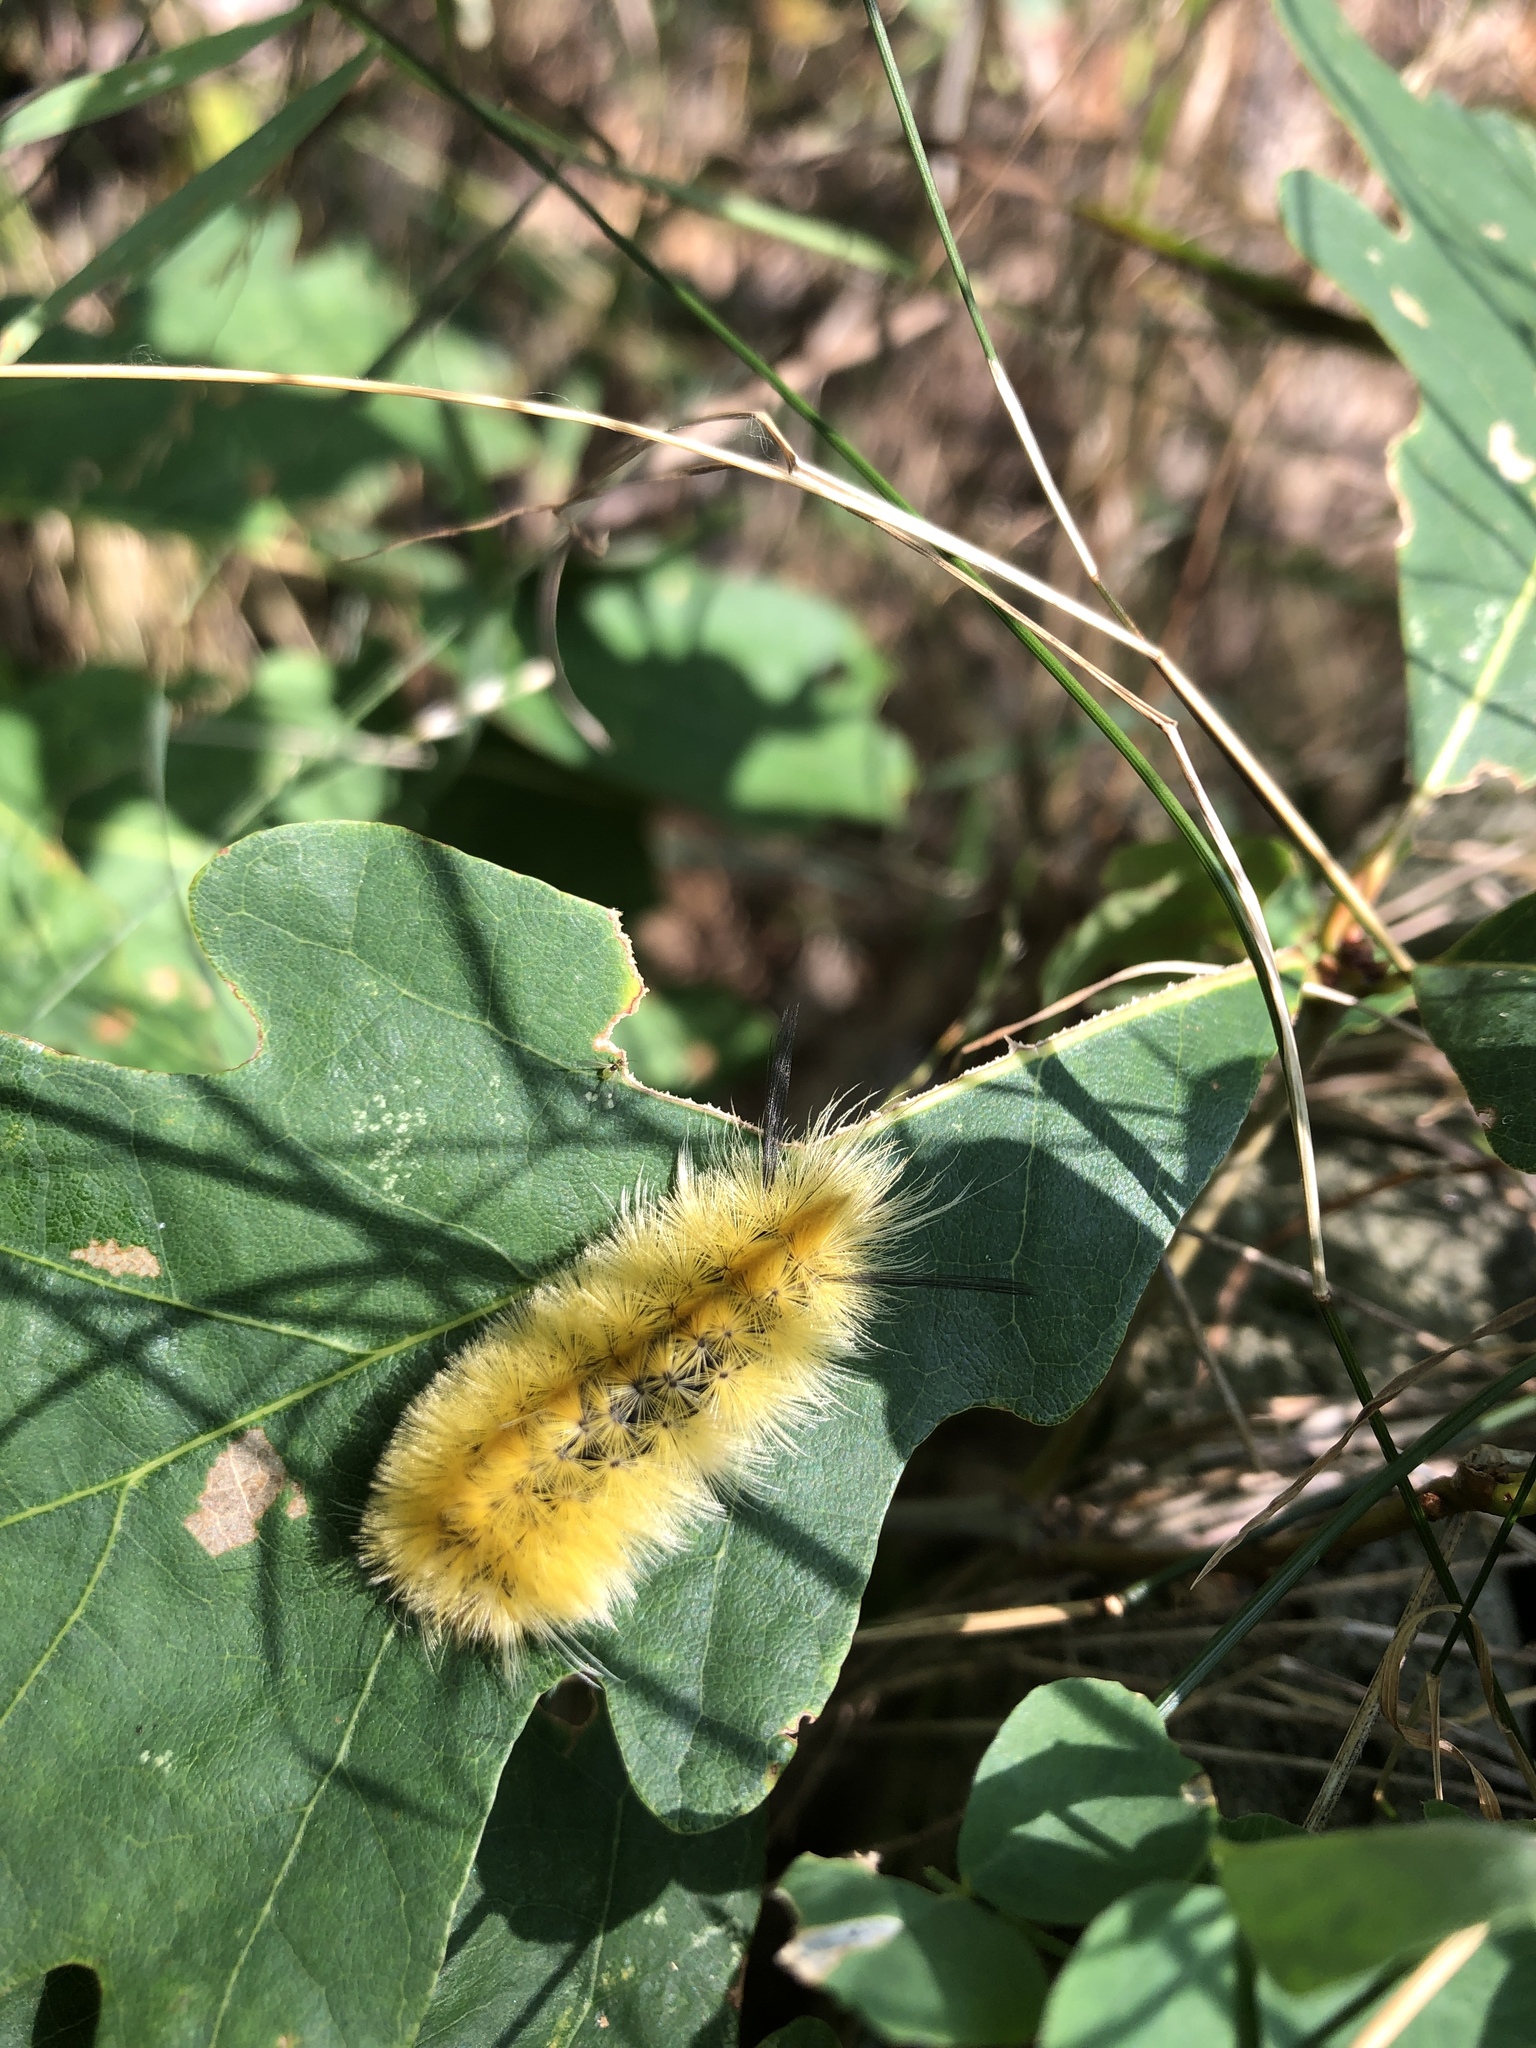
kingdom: Animalia
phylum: Arthropoda
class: Insecta
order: Lepidoptera
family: Erebidae
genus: Halysidota
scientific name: Halysidota tessellaris
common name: Banded tussock moth
